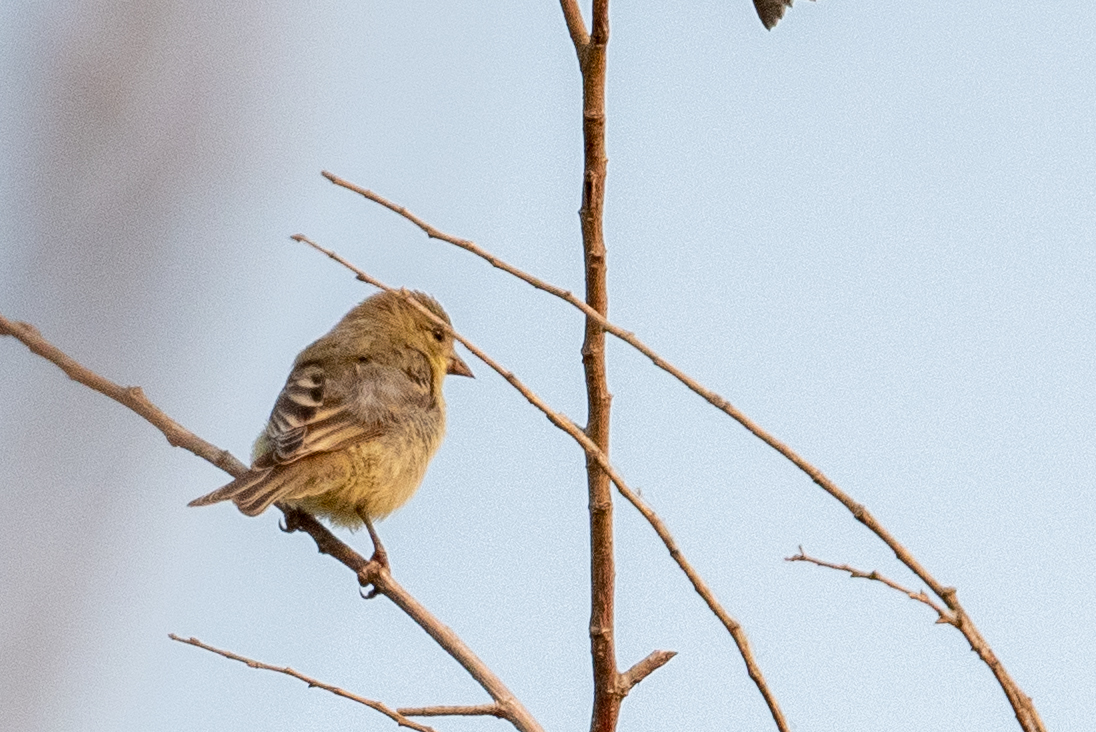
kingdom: Animalia
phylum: Chordata
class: Aves
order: Passeriformes
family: Fringillidae
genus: Spinus
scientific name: Spinus psaltria
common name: Lesser goldfinch
